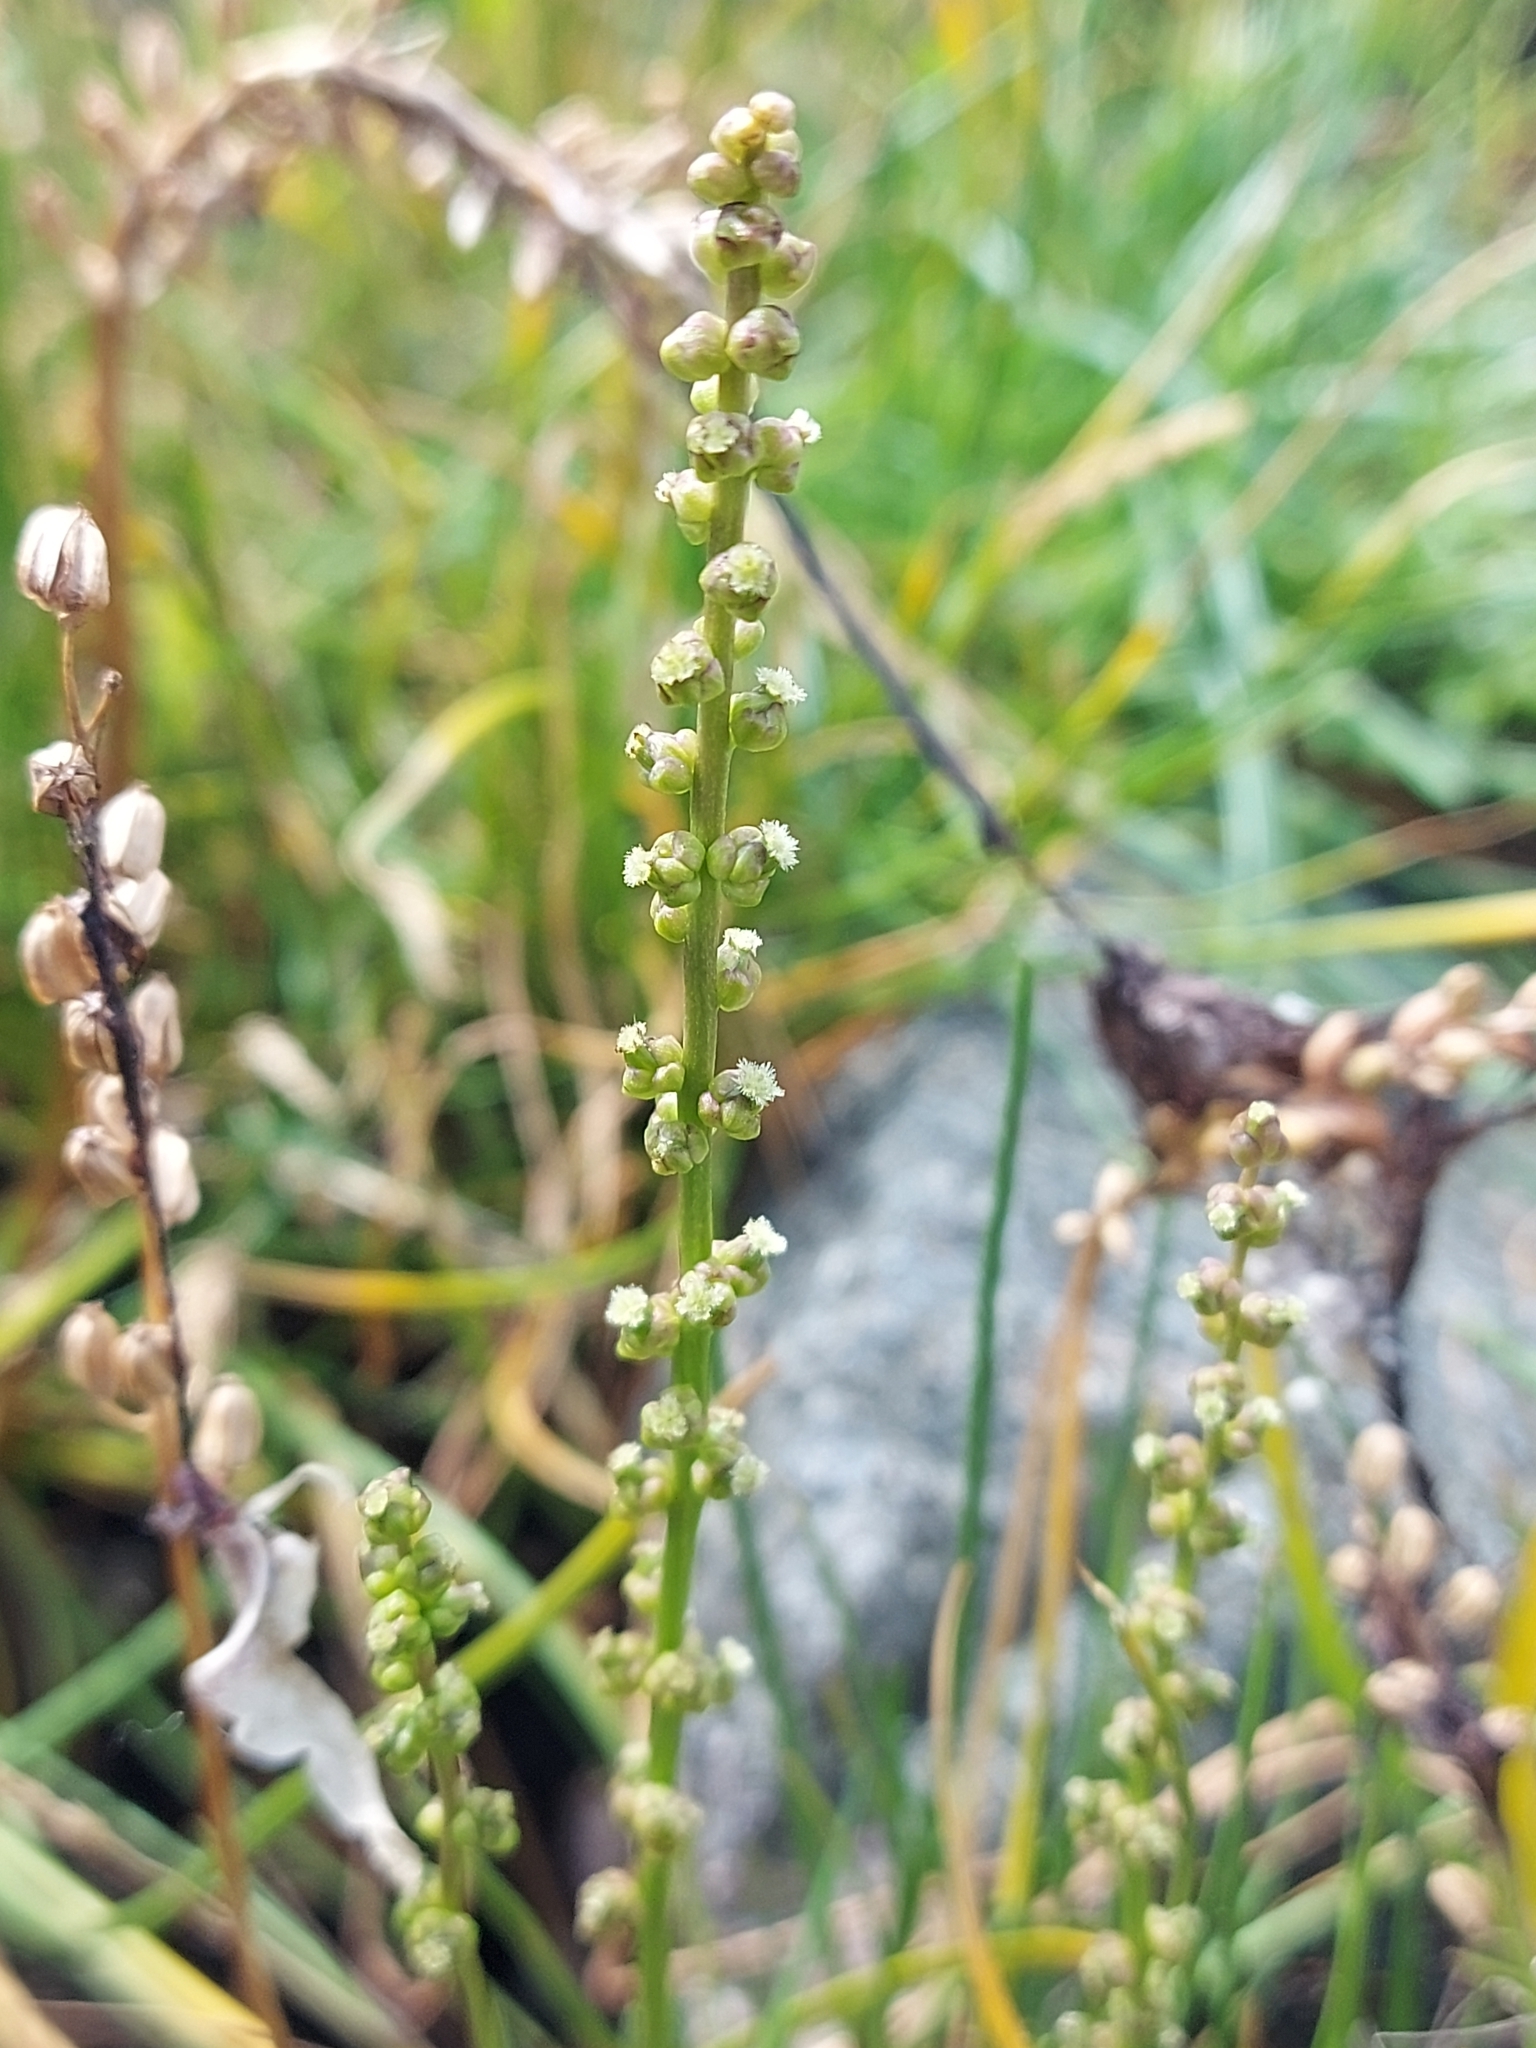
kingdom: Plantae
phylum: Tracheophyta
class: Liliopsida
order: Alismatales
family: Juncaginaceae
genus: Triglochin
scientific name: Triglochin maritima
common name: Sea arrowgrass
